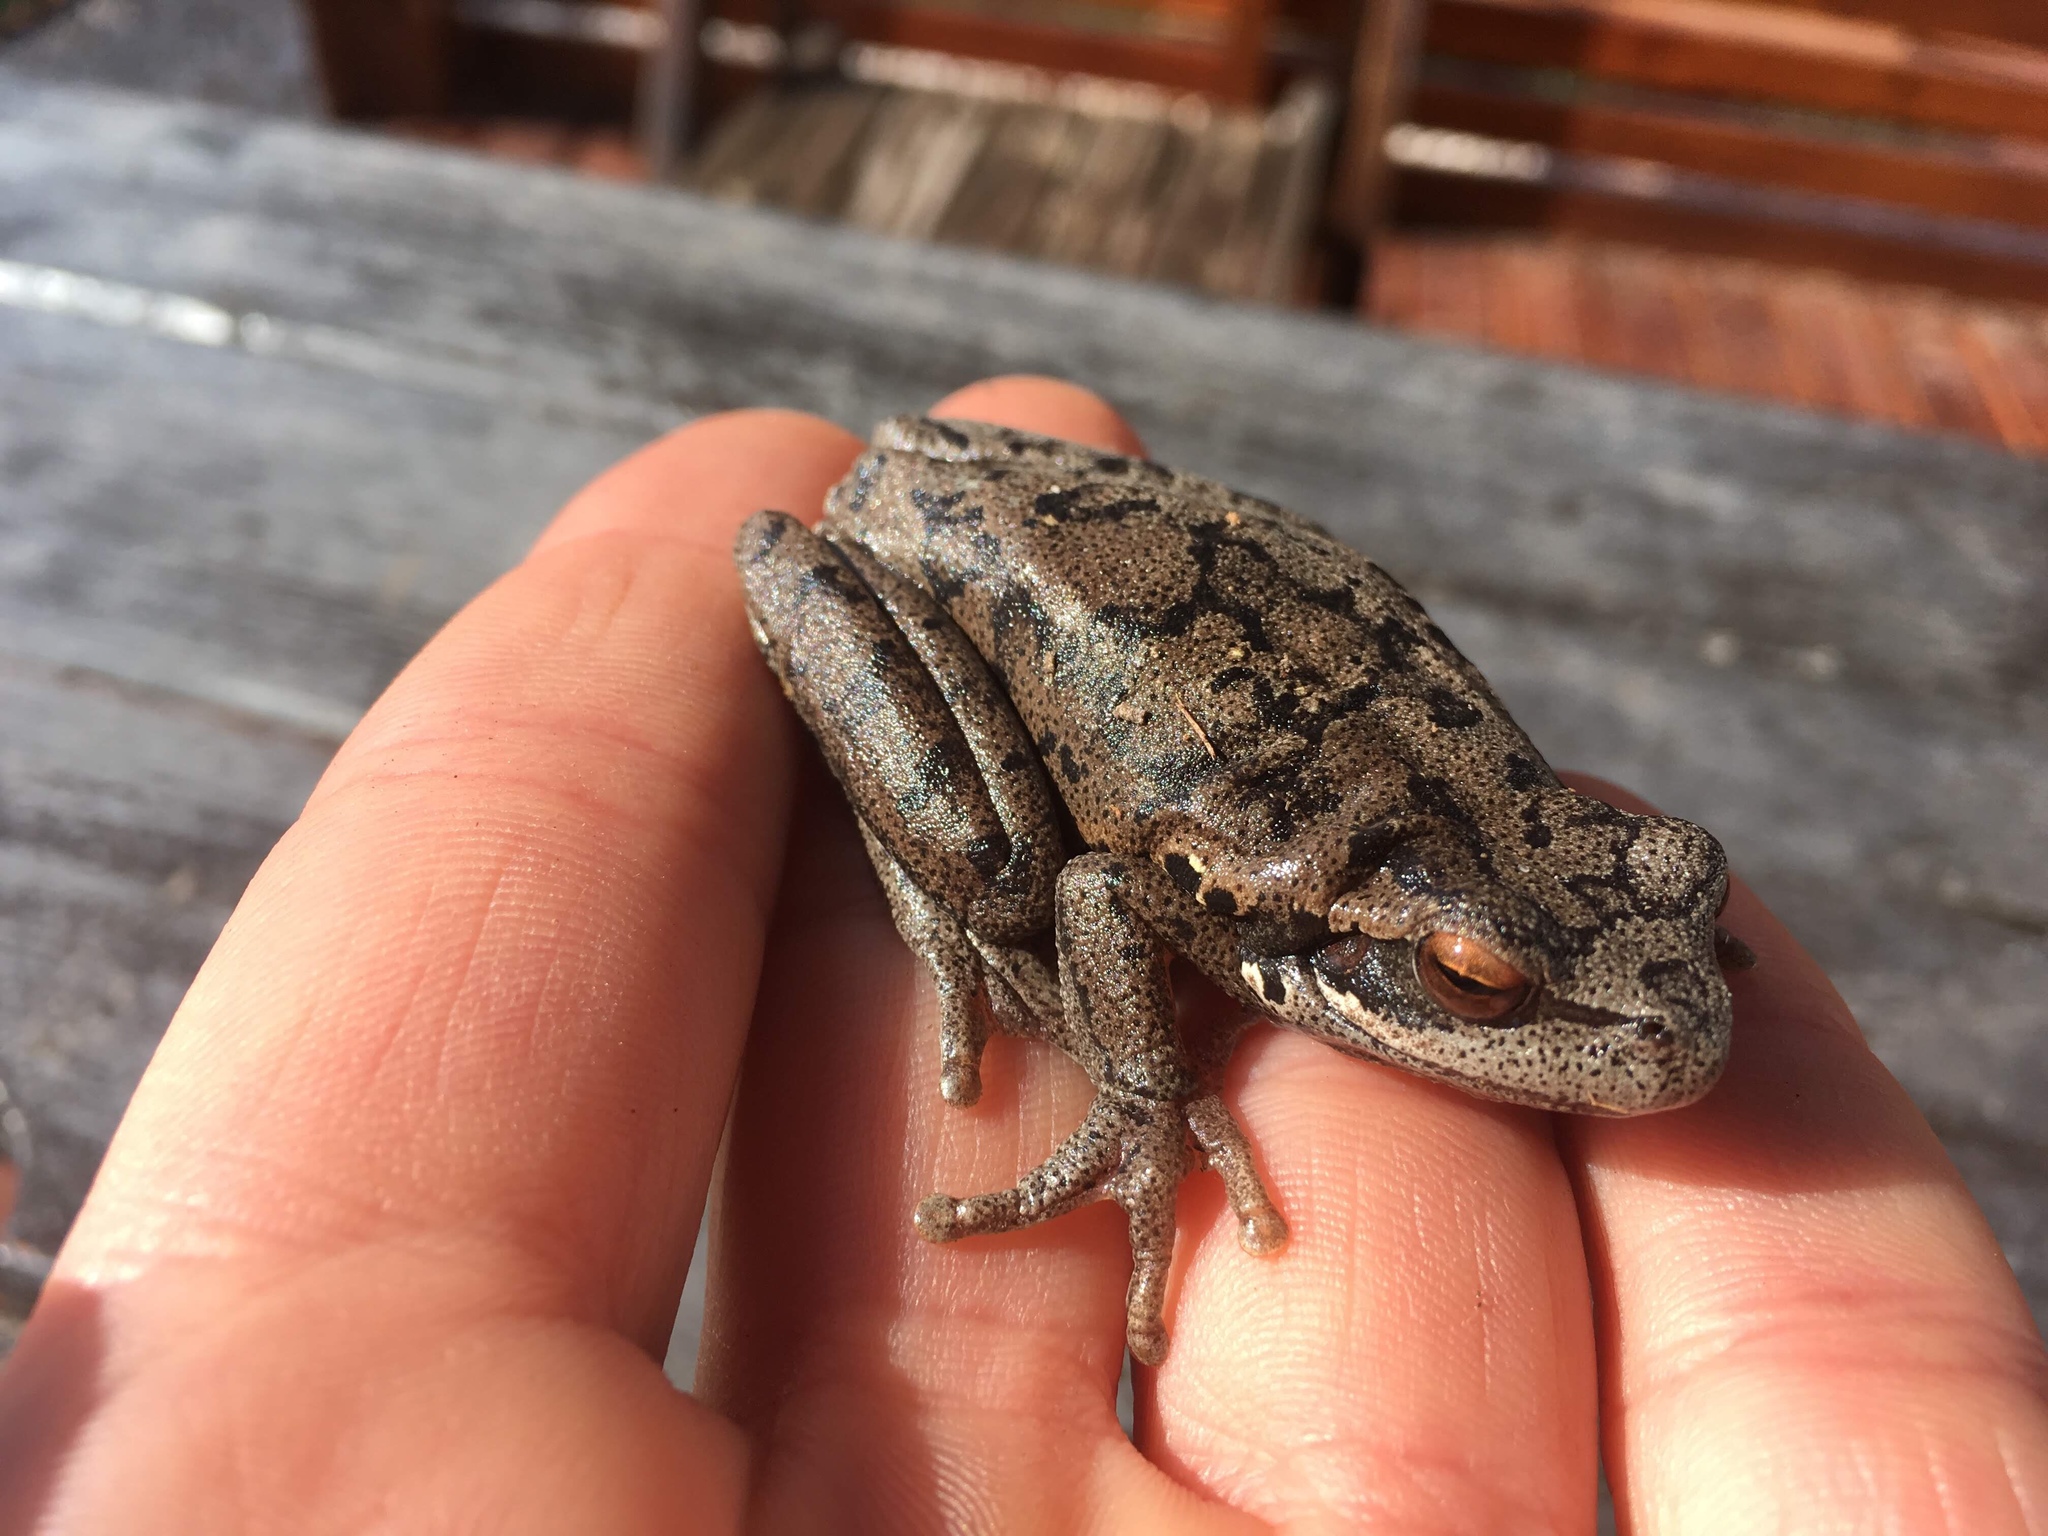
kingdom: Animalia
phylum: Chordata
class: Amphibia
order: Anura
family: Hylidae
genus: Boana
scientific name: Boana pulchella
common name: Montevideo treefrog
